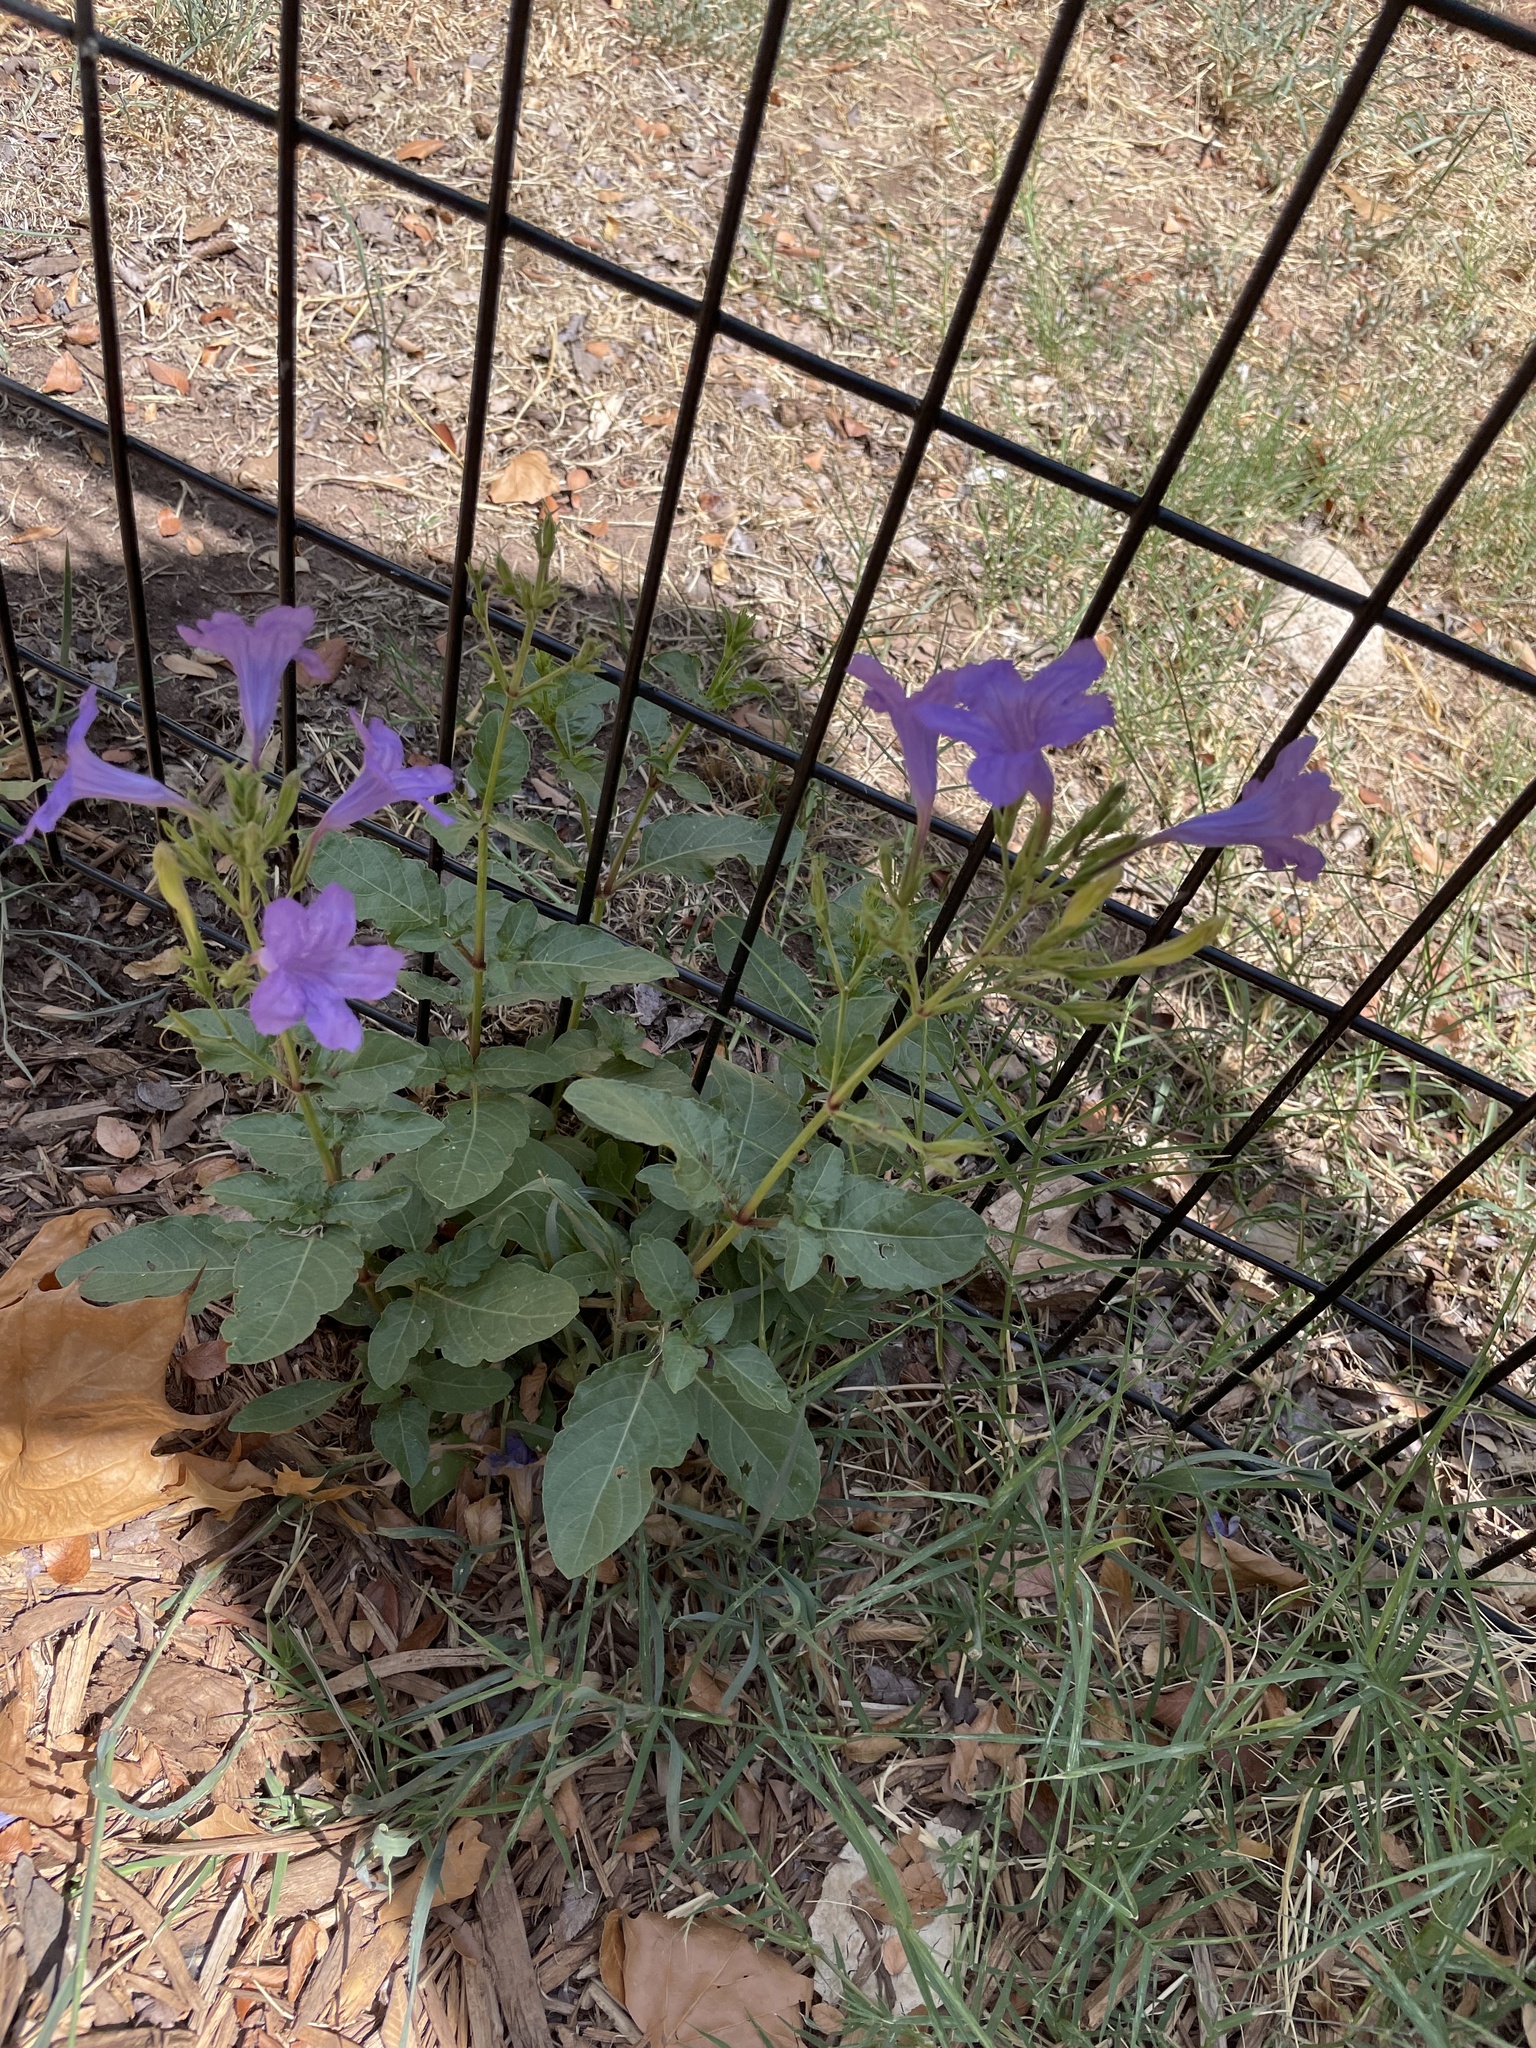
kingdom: Plantae
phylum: Tracheophyta
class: Magnoliopsida
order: Lamiales
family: Acanthaceae
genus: Ruellia
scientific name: Ruellia ciliatiflora
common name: Hairyflower wild petunia
